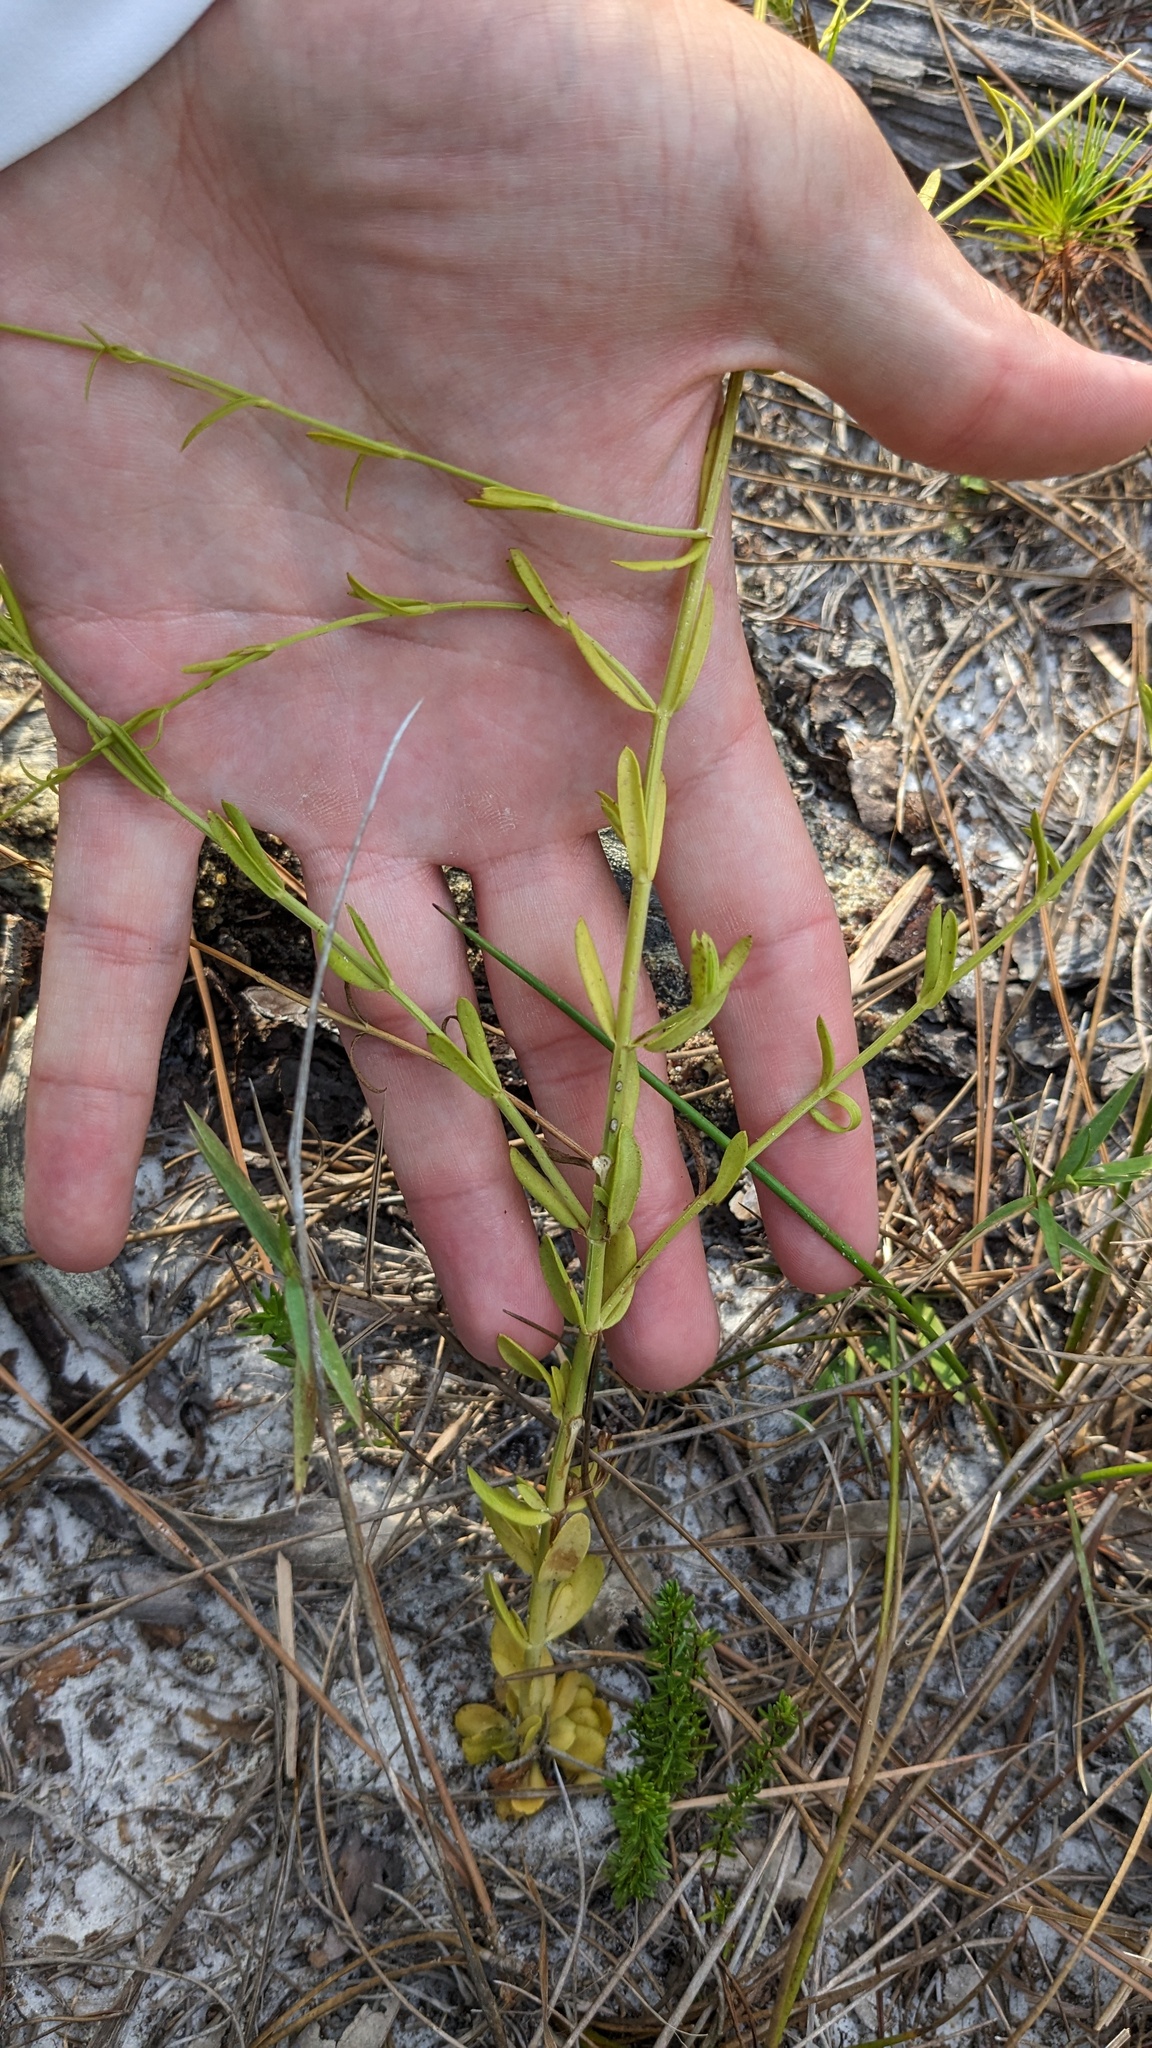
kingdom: Plantae
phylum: Tracheophyta
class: Magnoliopsida
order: Gentianales
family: Gentianaceae
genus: Sabatia
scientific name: Sabatia brevifolia
